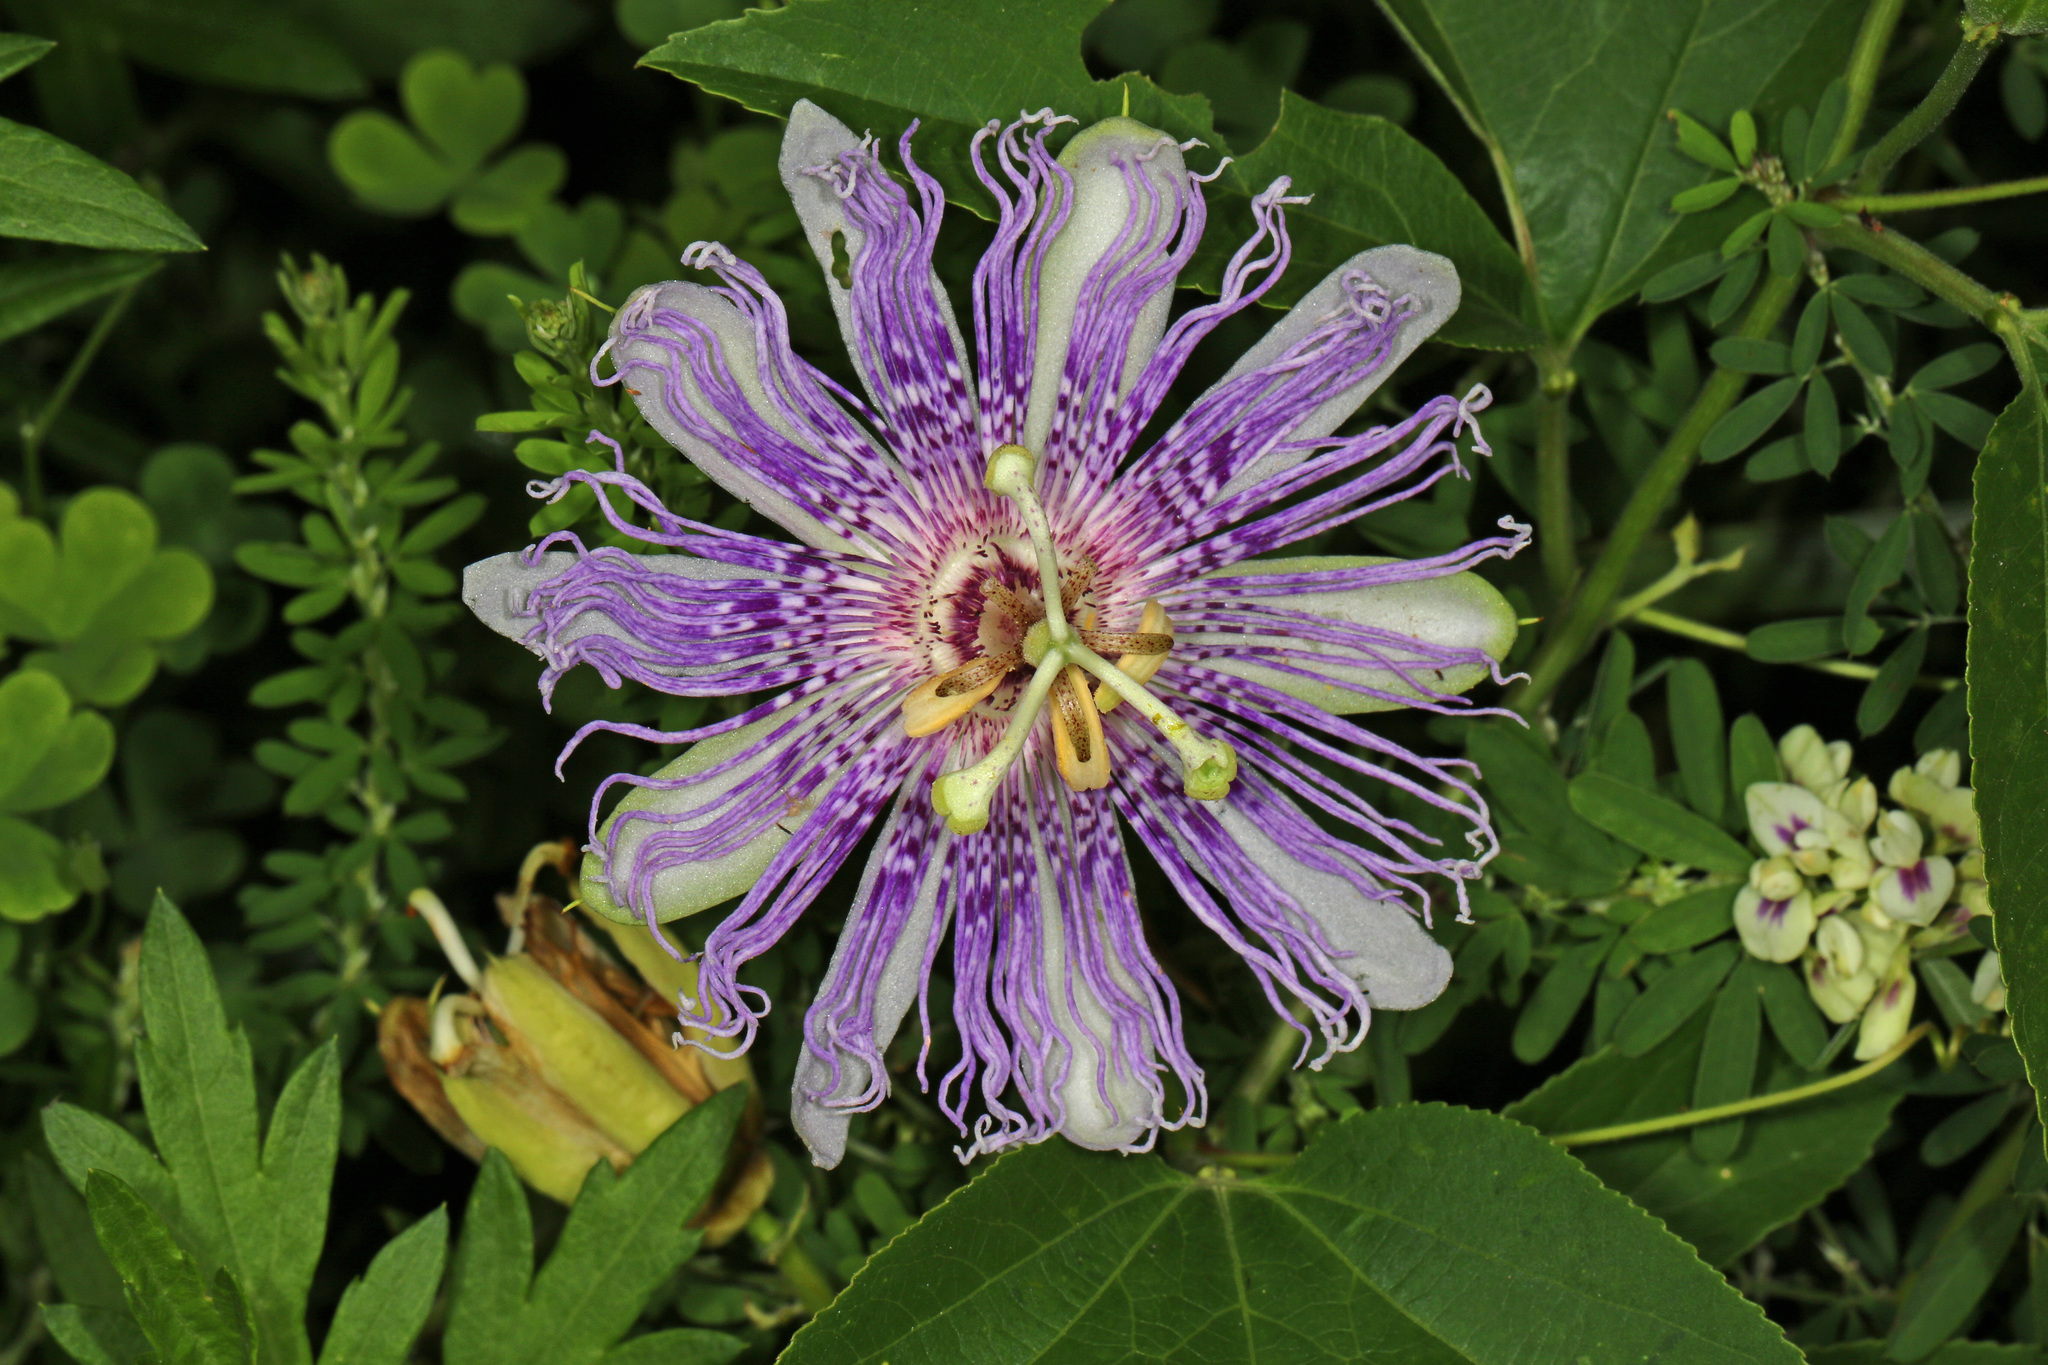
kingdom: Plantae
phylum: Tracheophyta
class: Magnoliopsida
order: Malpighiales
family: Passifloraceae
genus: Passiflora
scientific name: Passiflora incarnata
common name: Apricot-vine
